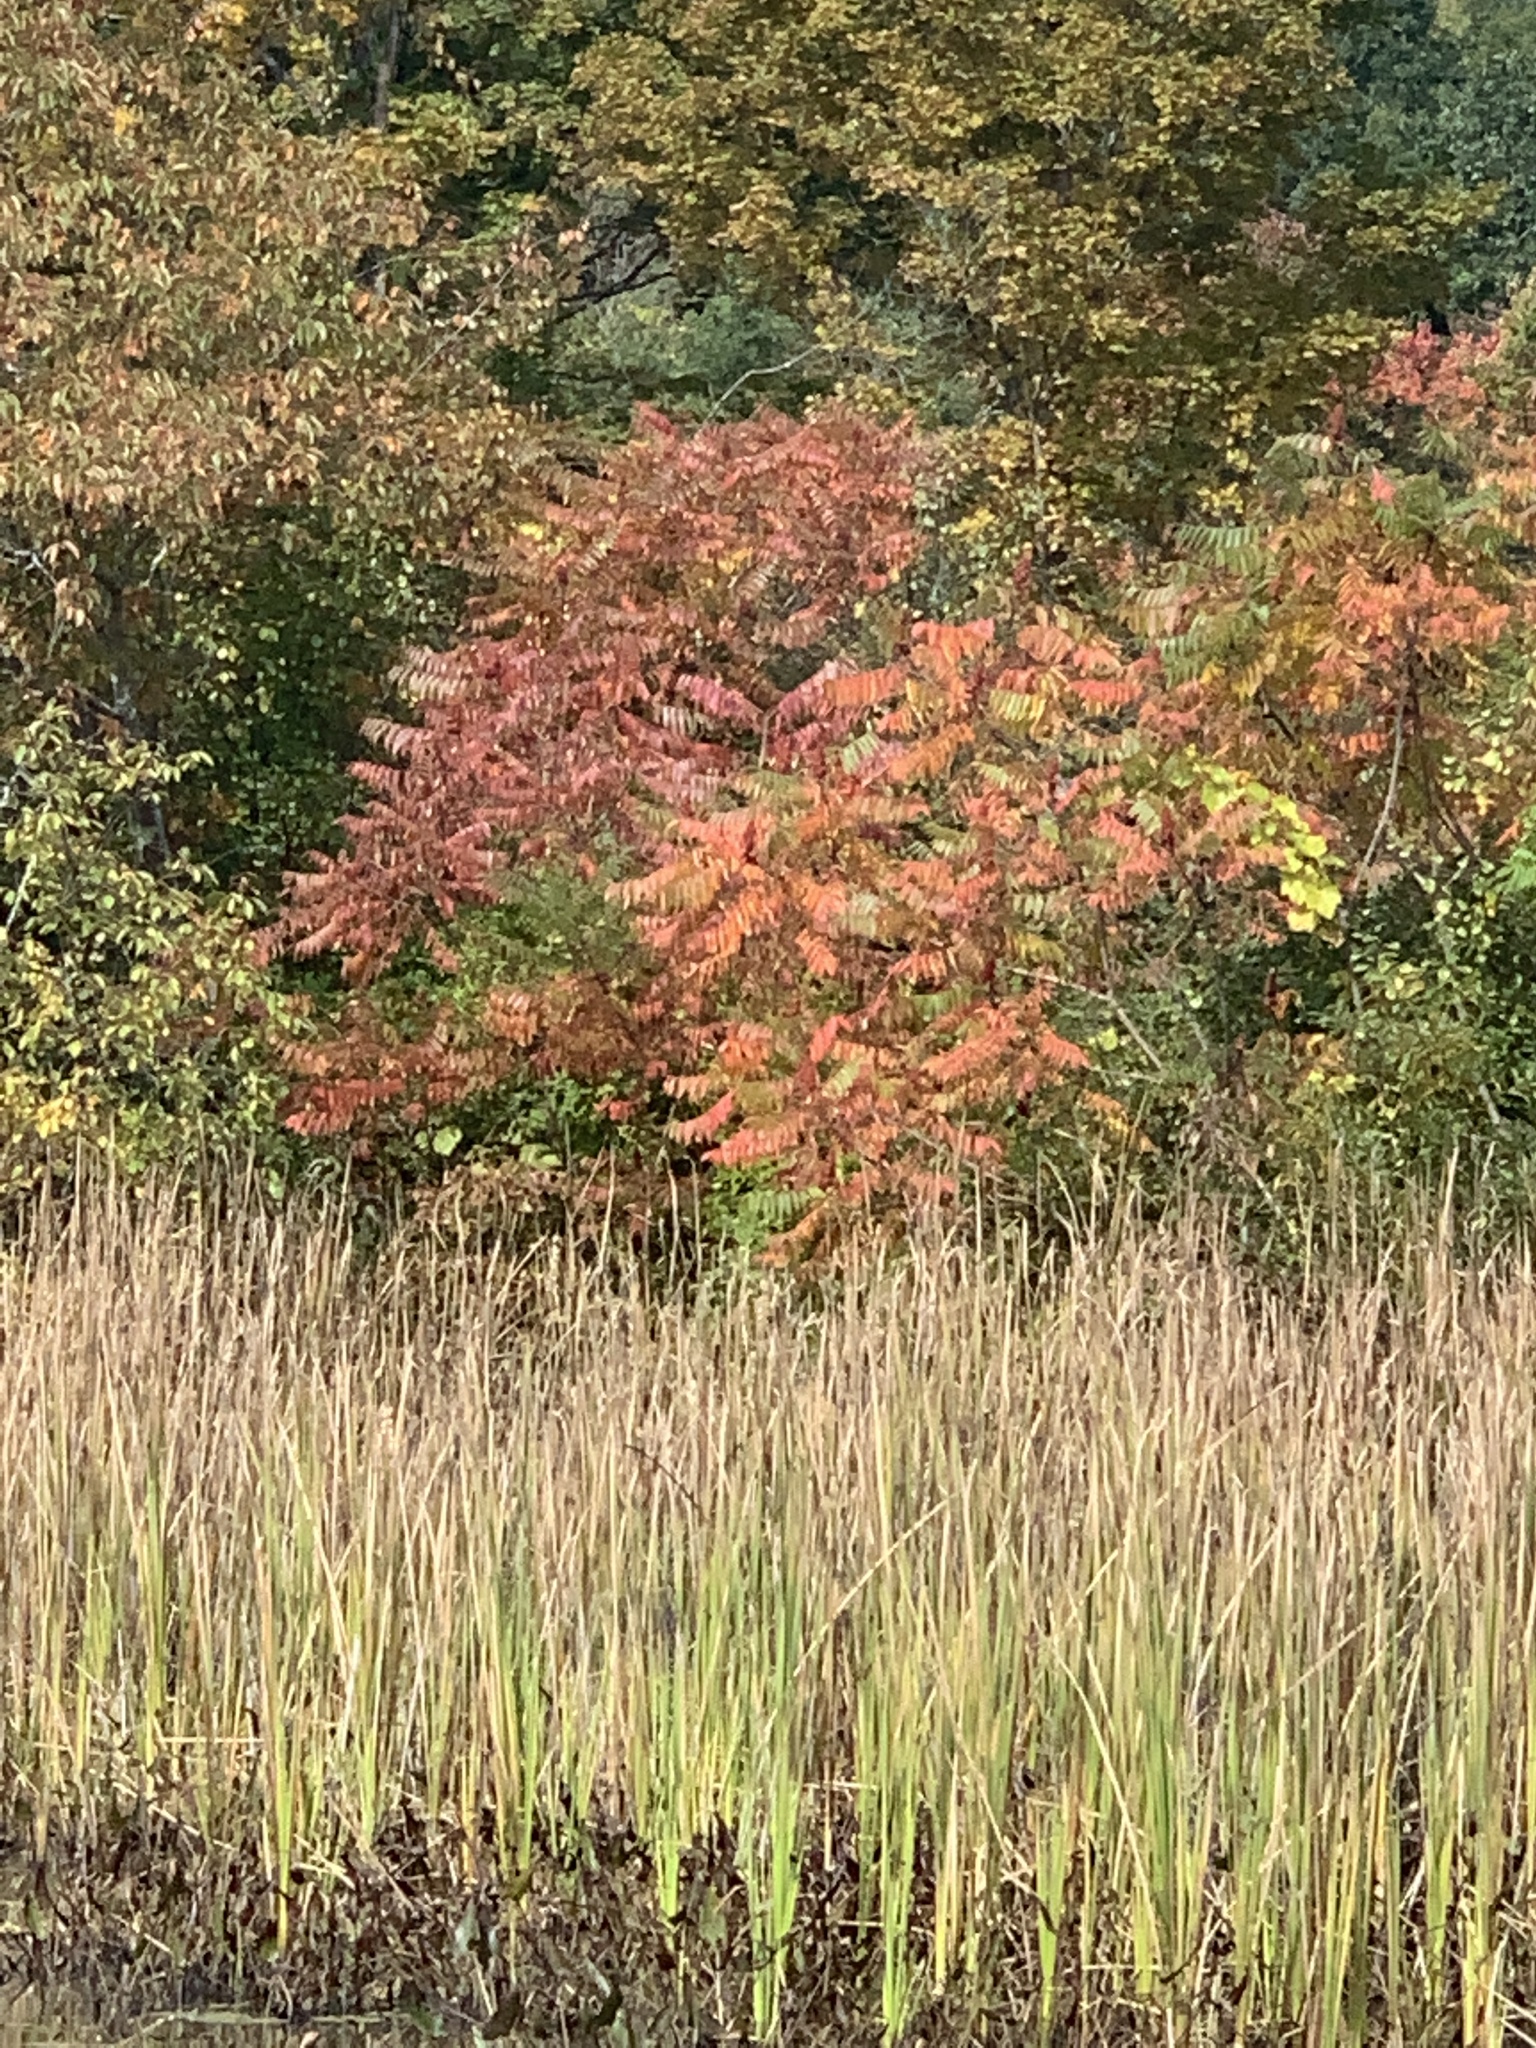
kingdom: Plantae
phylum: Tracheophyta
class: Magnoliopsida
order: Sapindales
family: Anacardiaceae
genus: Rhus
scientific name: Rhus typhina
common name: Staghorn sumac
